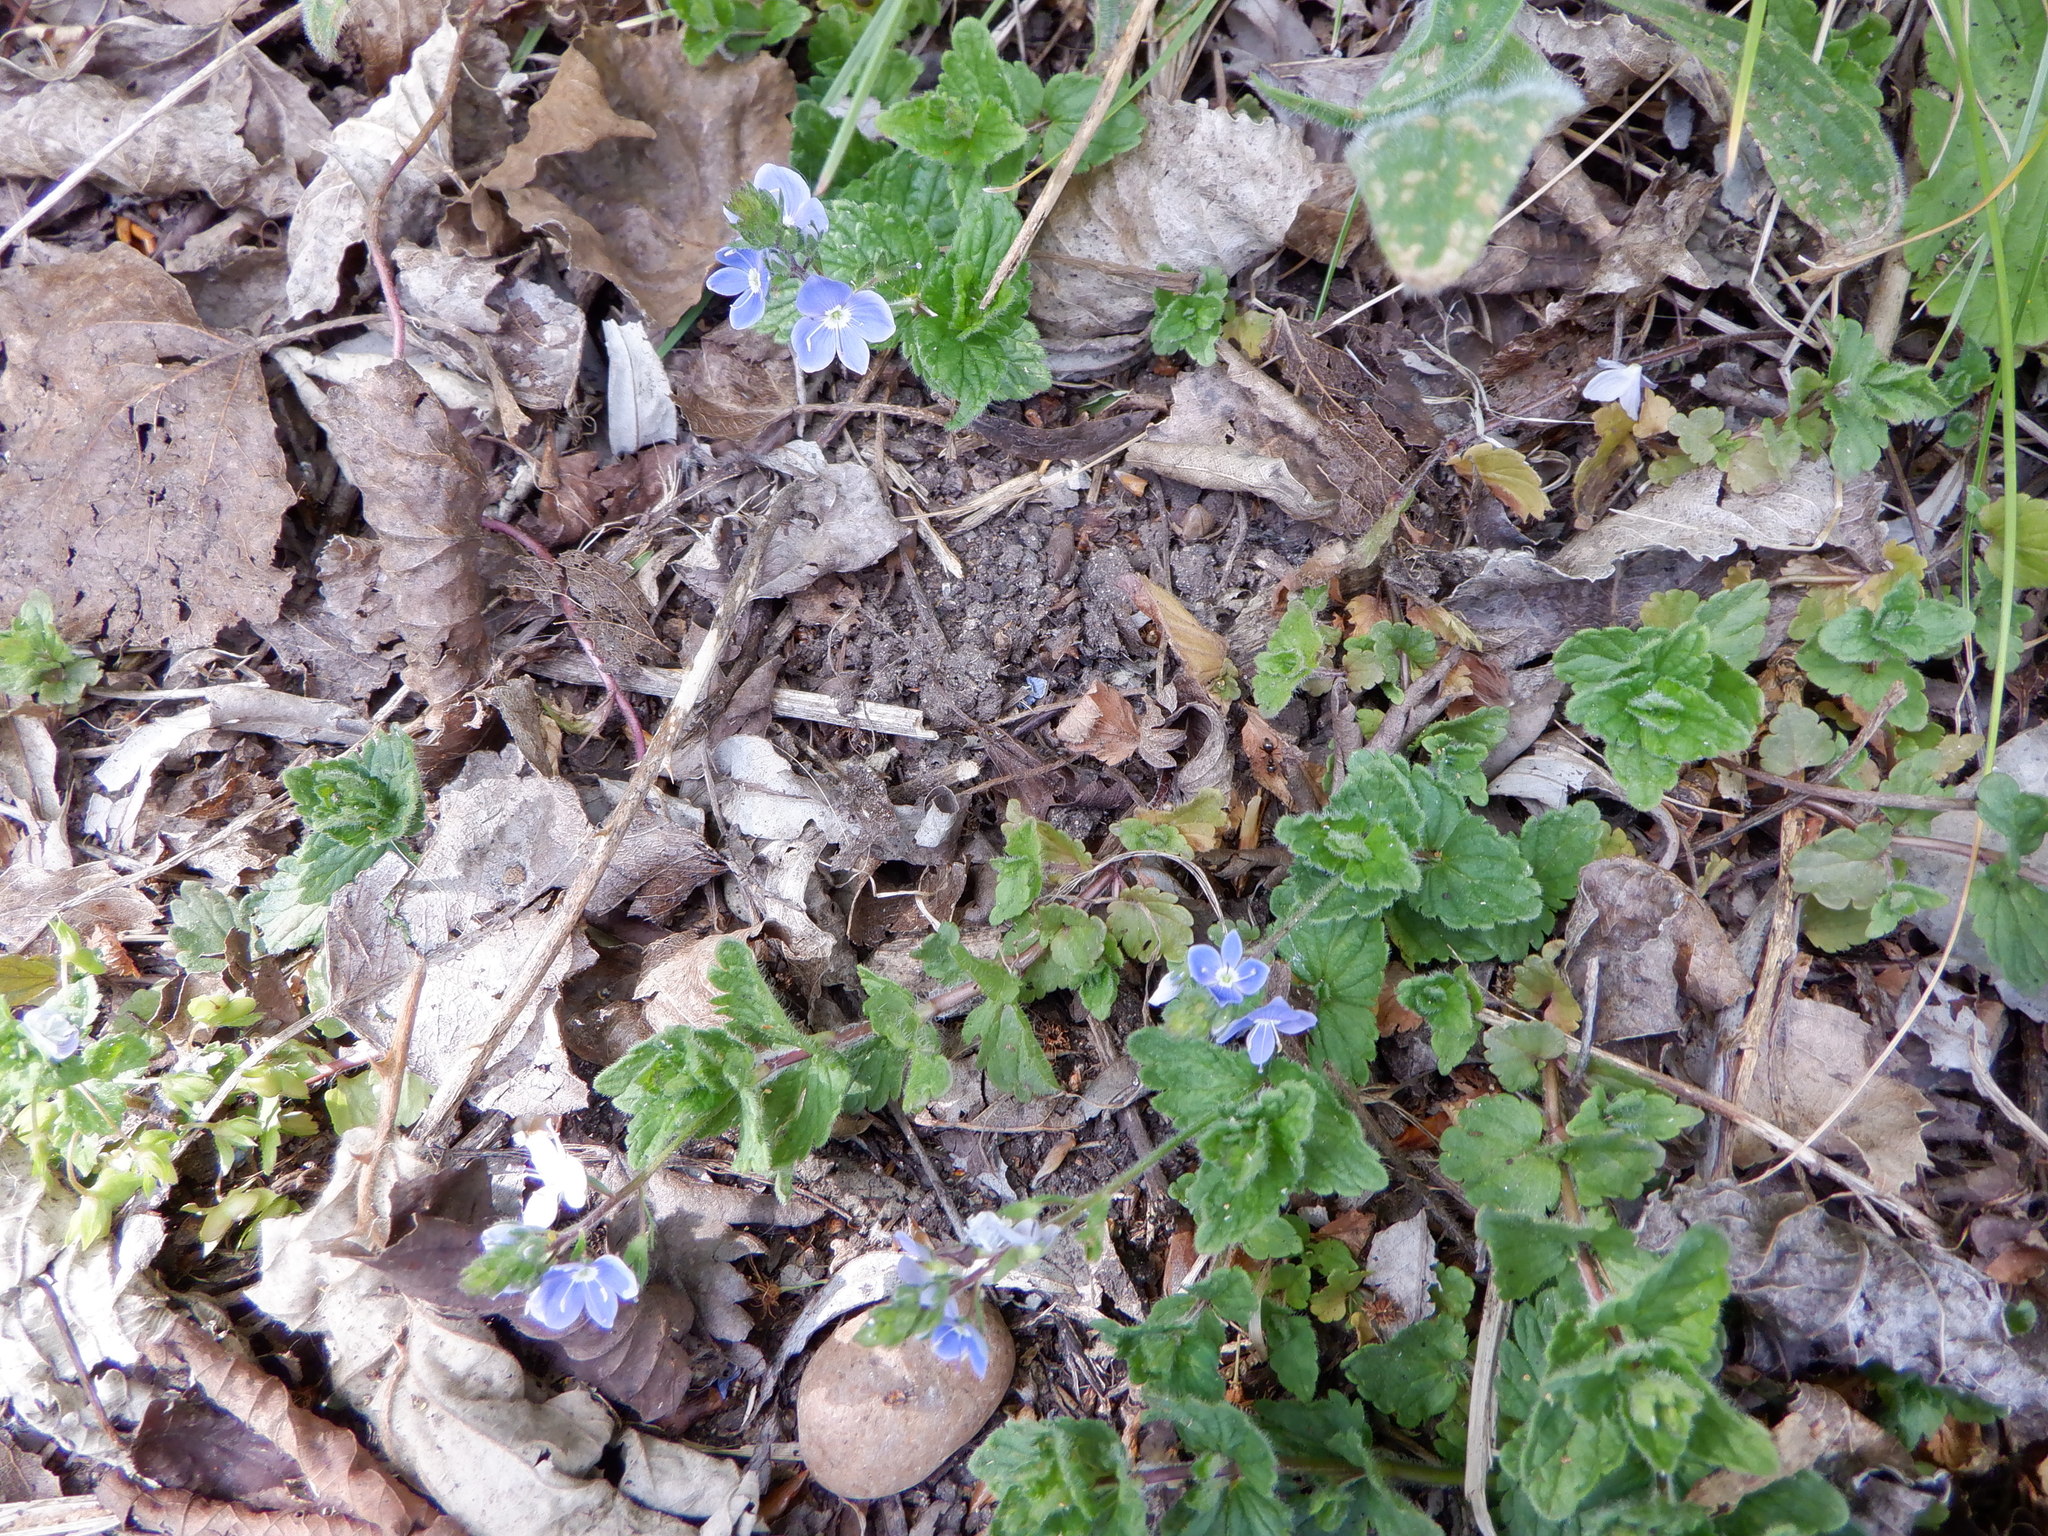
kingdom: Plantae
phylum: Tracheophyta
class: Magnoliopsida
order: Lamiales
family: Plantaginaceae
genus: Veronica
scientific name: Veronica chamaedrys
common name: Germander speedwell
